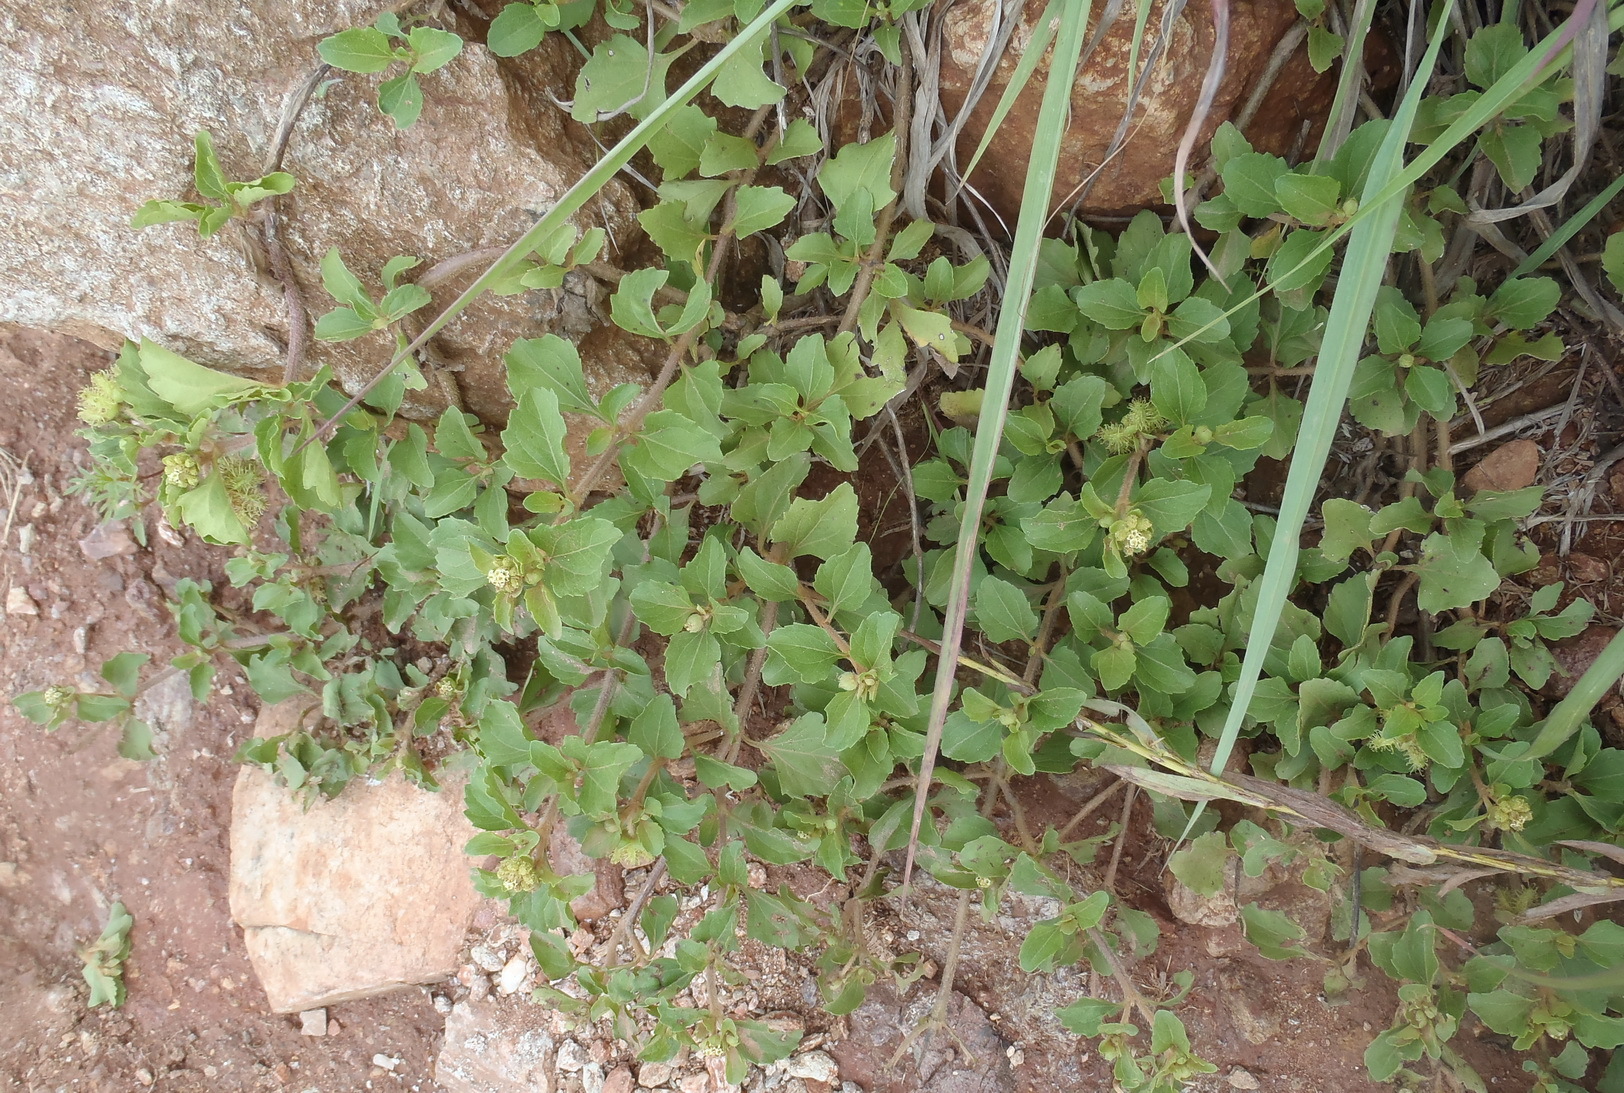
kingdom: Plantae
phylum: Tracheophyta
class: Magnoliopsida
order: Asterales
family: Asteraceae
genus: Acanthospermum
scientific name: Acanthospermum australe
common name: Paraguayan starbur
